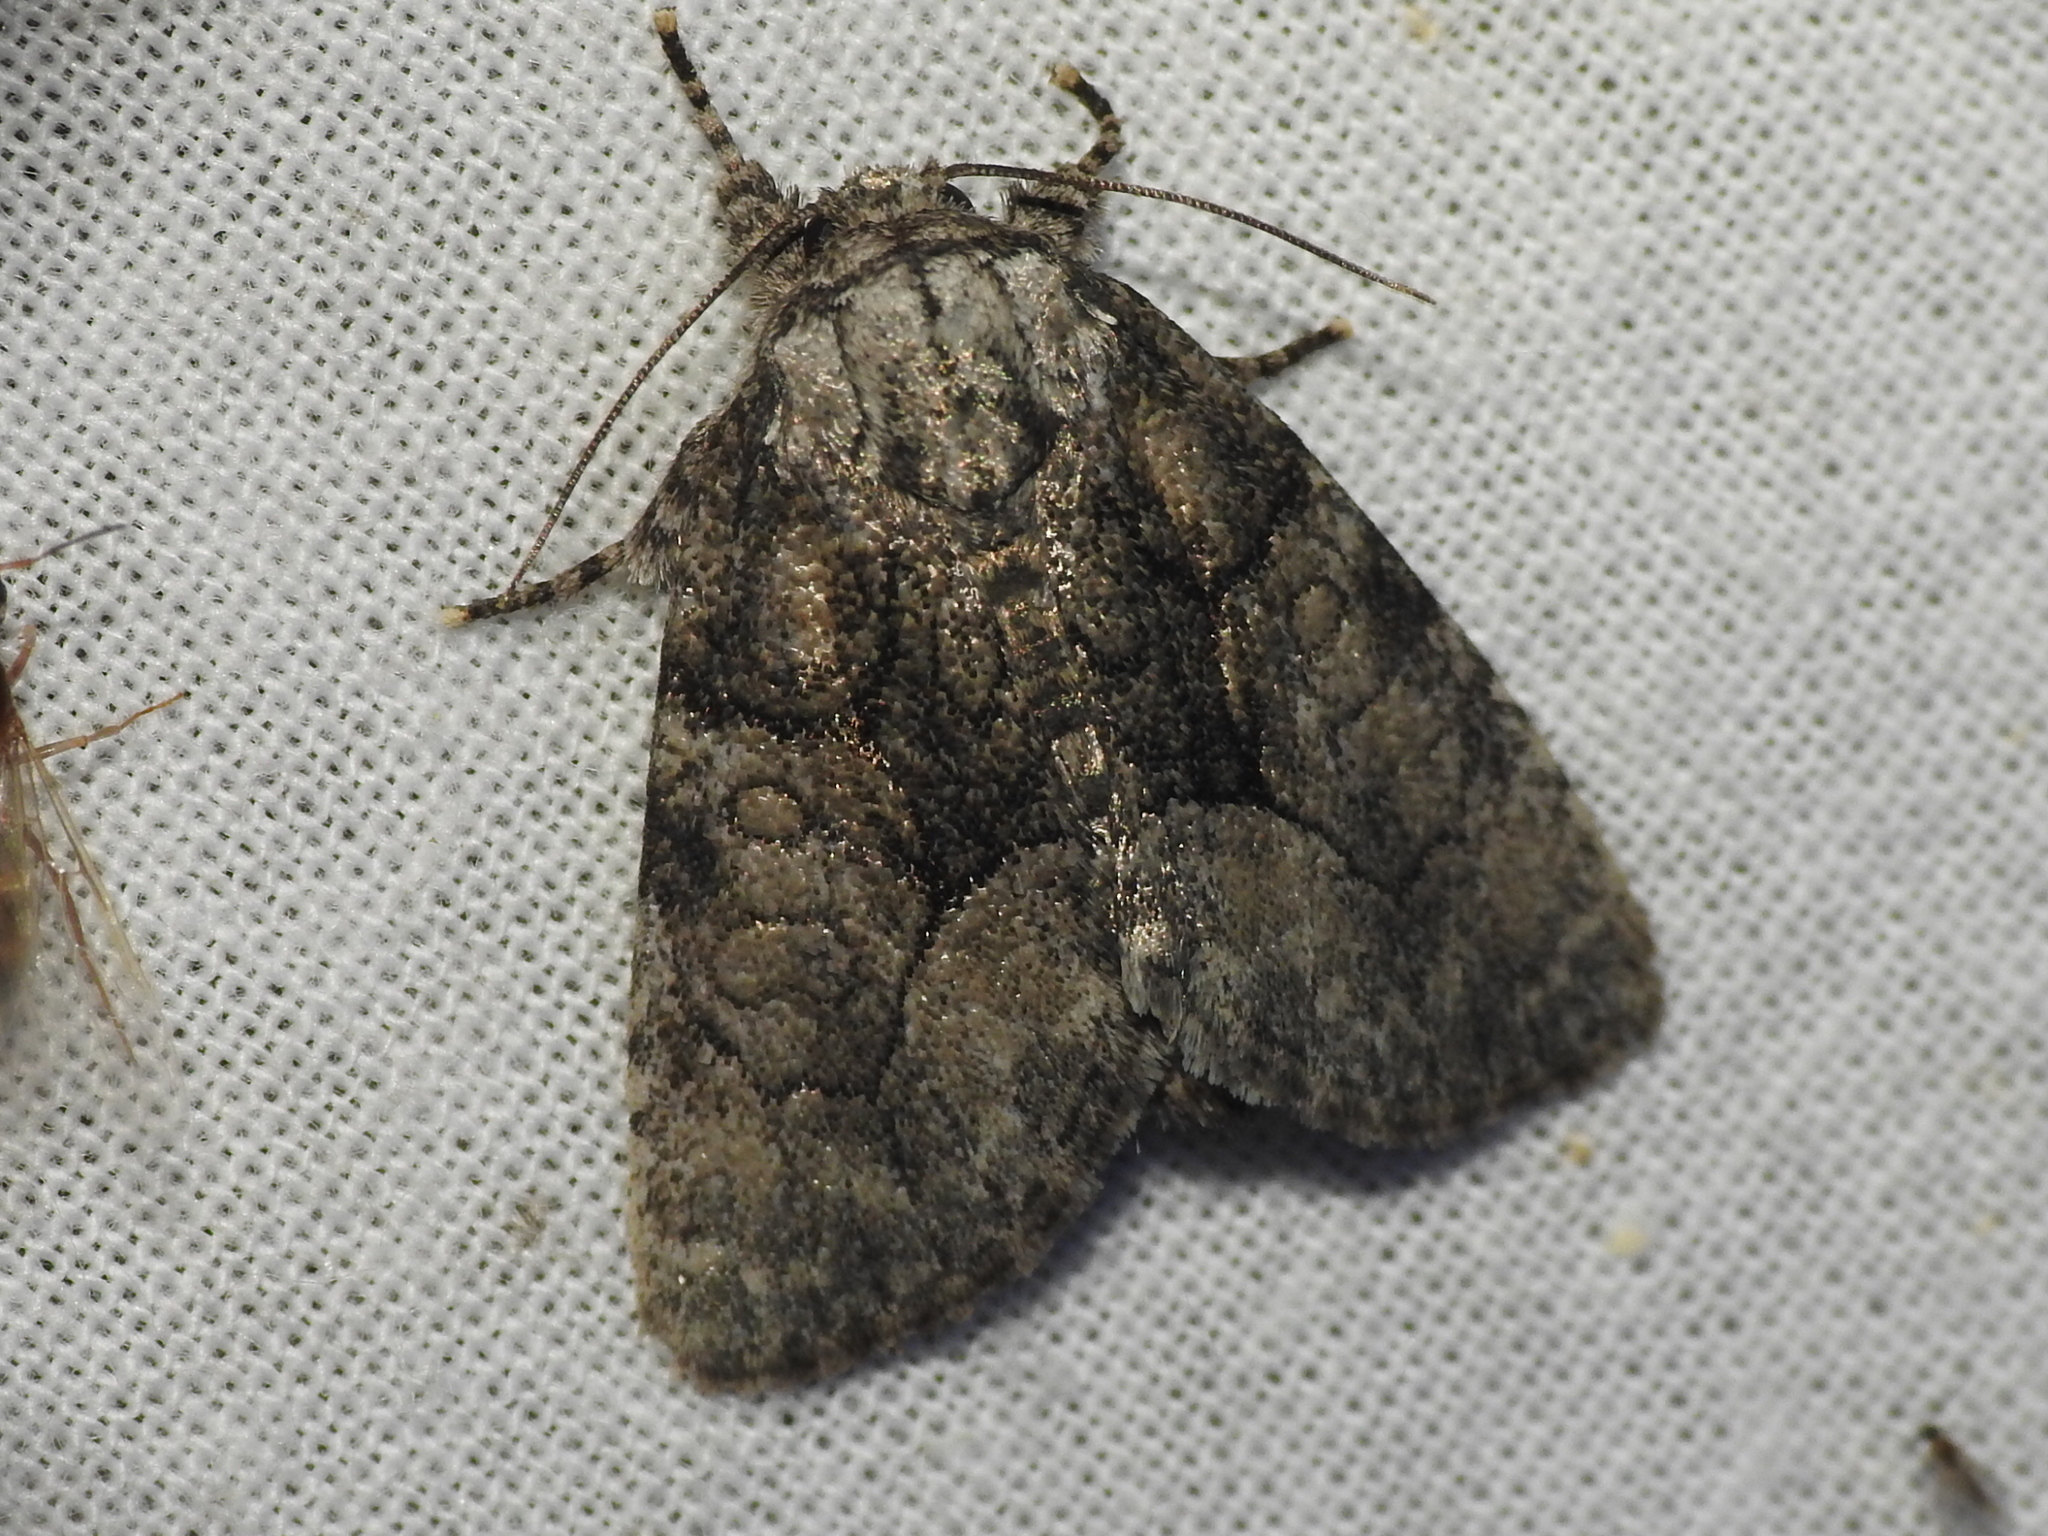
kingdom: Animalia
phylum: Arthropoda
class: Insecta
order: Lepidoptera
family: Noctuidae
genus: Raphia
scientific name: Raphia frater
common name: Brother
